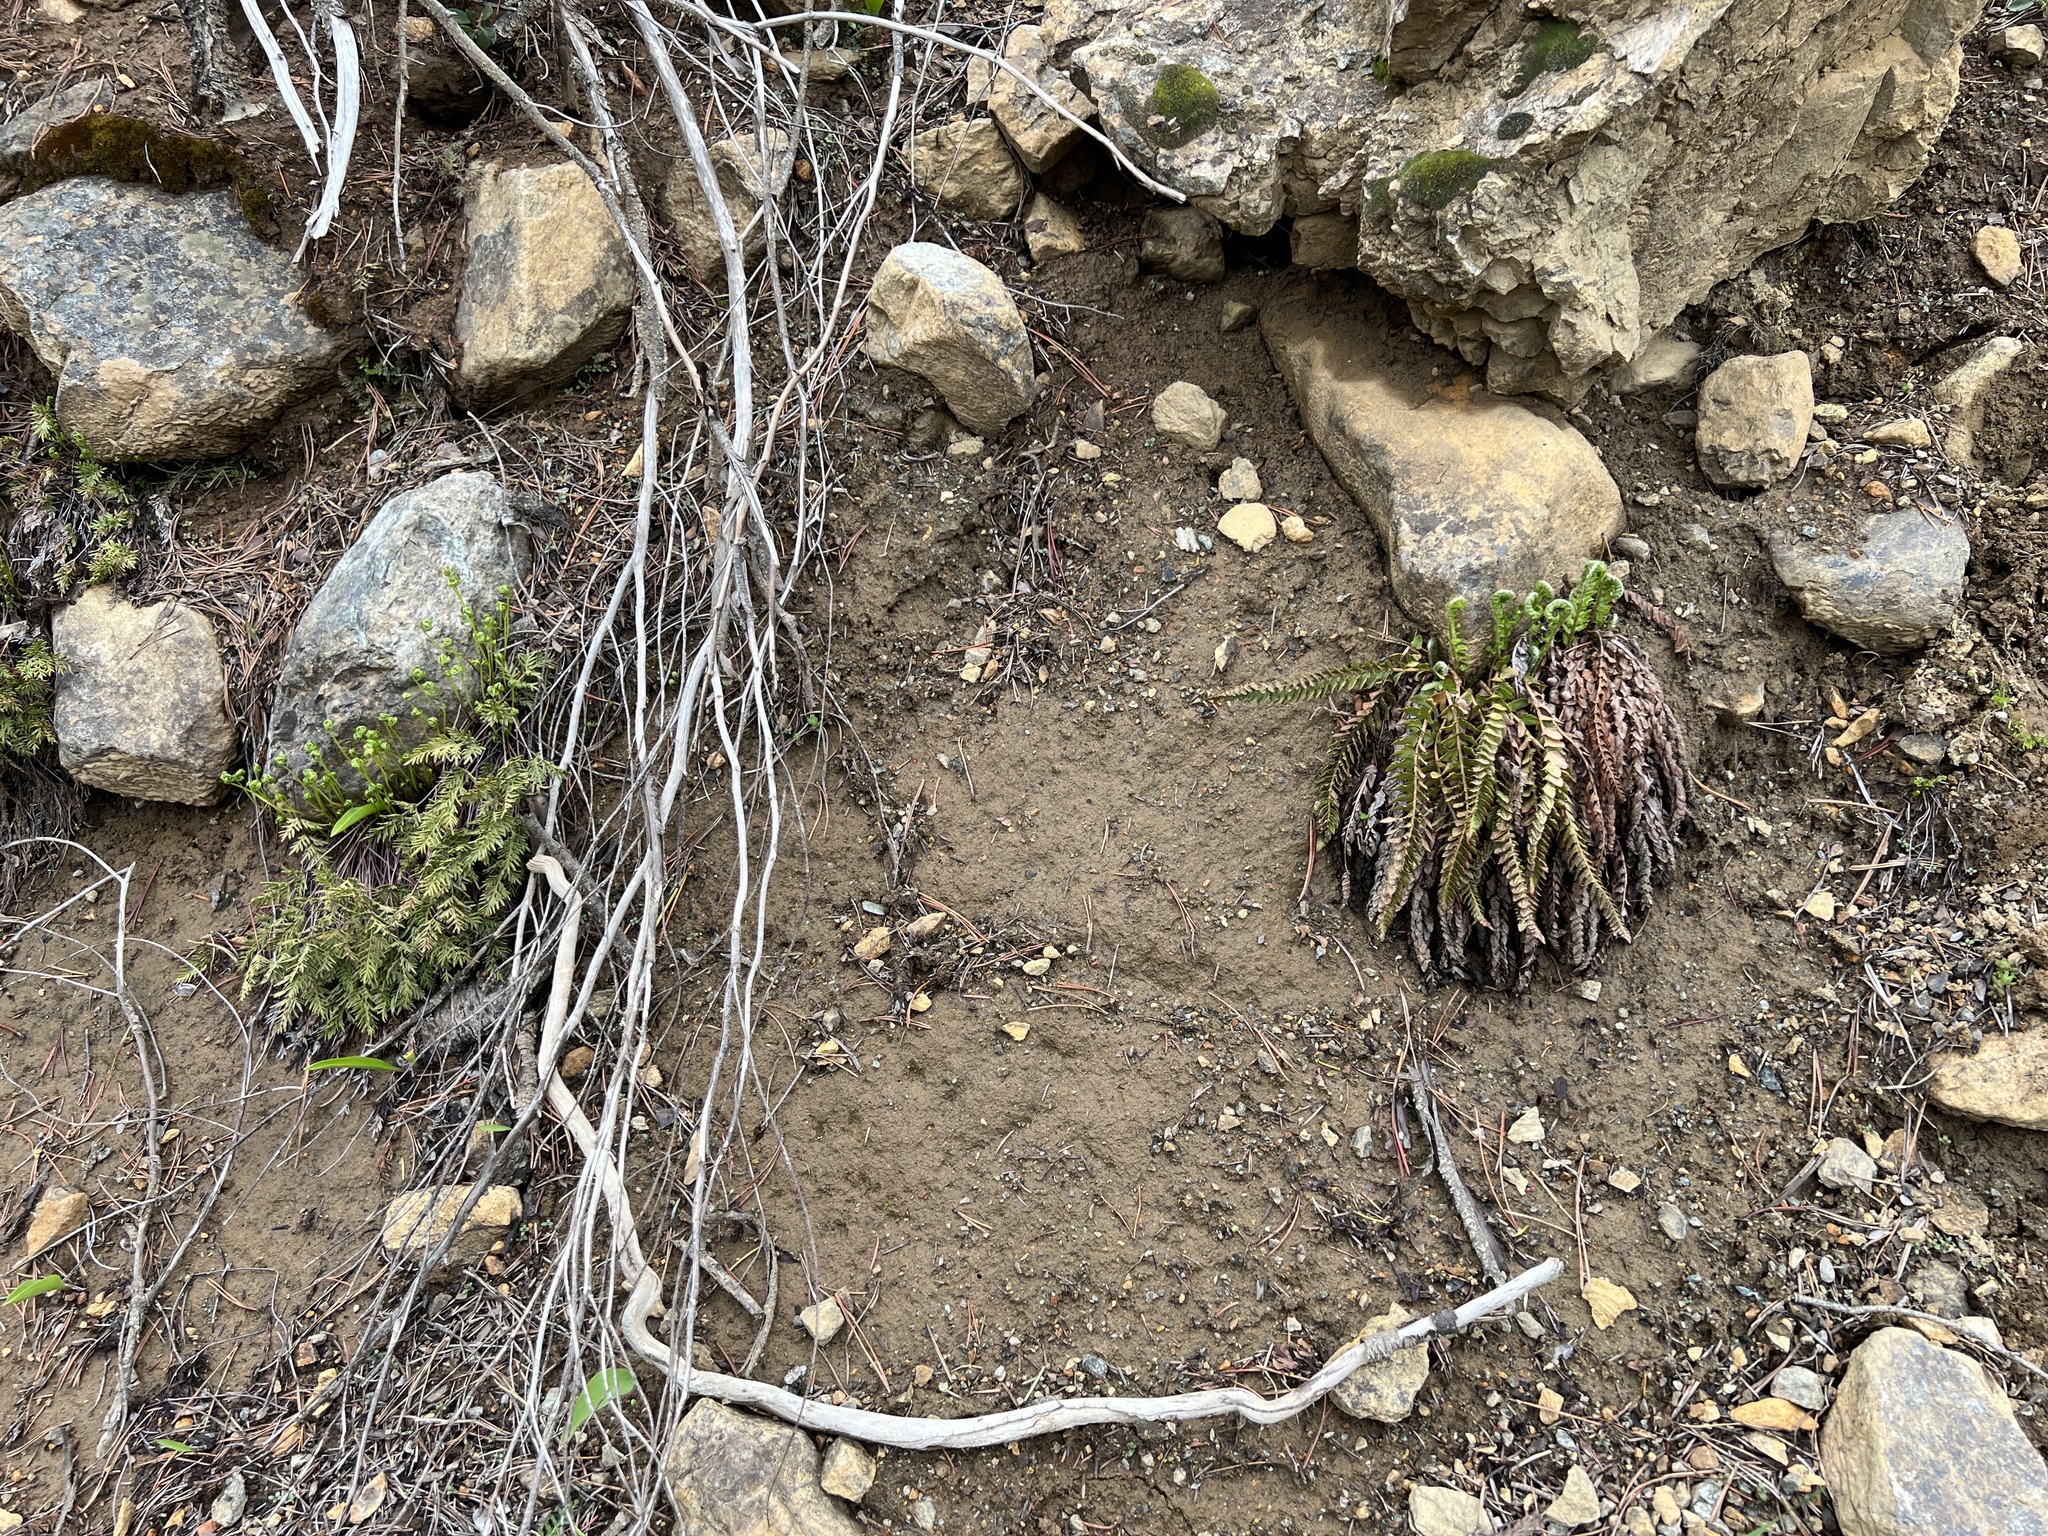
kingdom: Plantae
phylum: Tracheophyta
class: Polypodiopsida
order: Polypodiales
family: Dryopteridaceae
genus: Polystichum
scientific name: Polystichum scopulinum
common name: Eaton's shield fern
